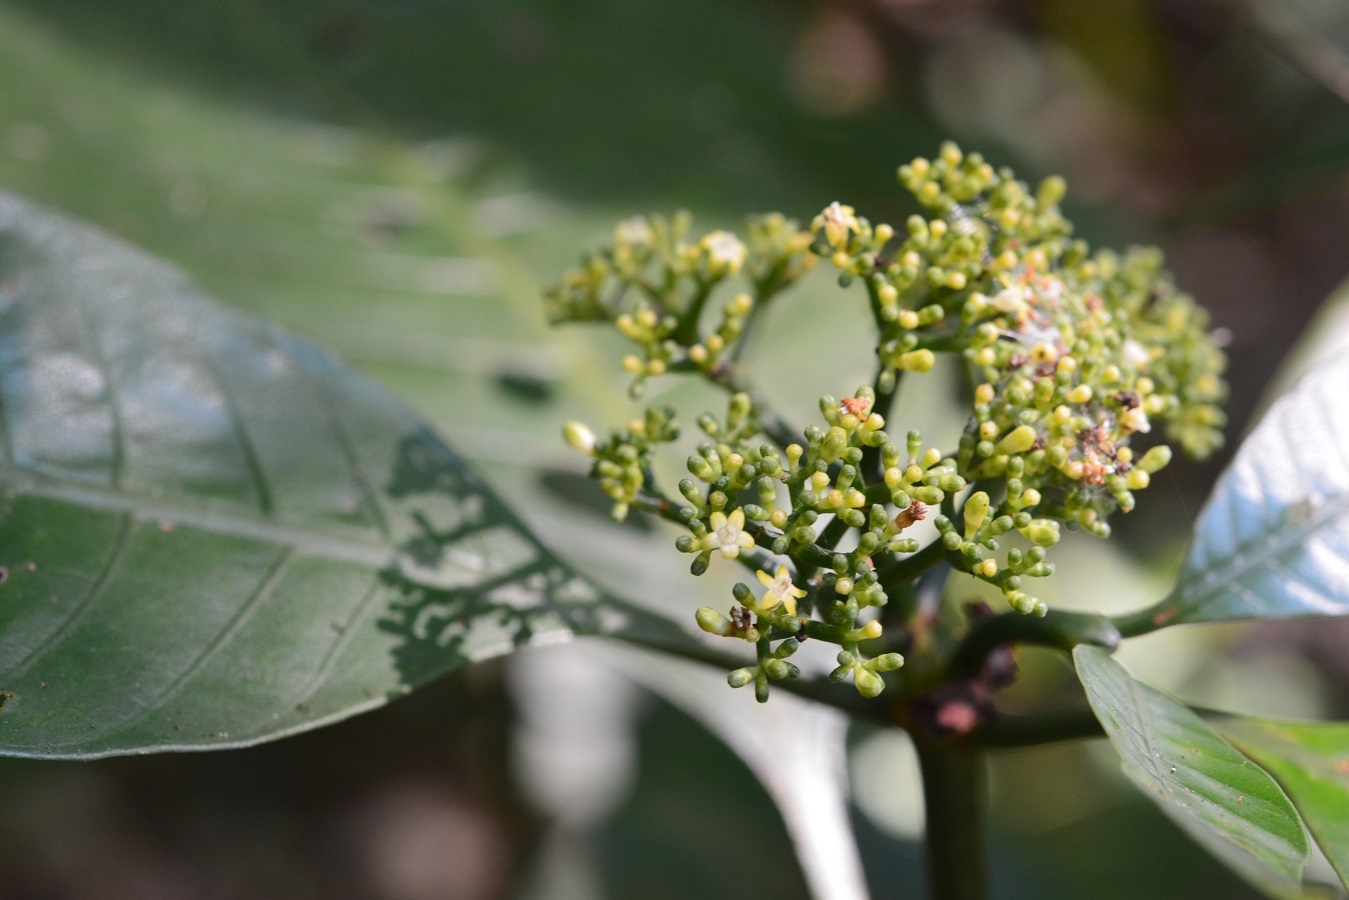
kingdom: Plantae
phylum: Tracheophyta
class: Magnoliopsida
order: Gentianales
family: Rubiaceae
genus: Psychotria
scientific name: Psychotria trichotoma
